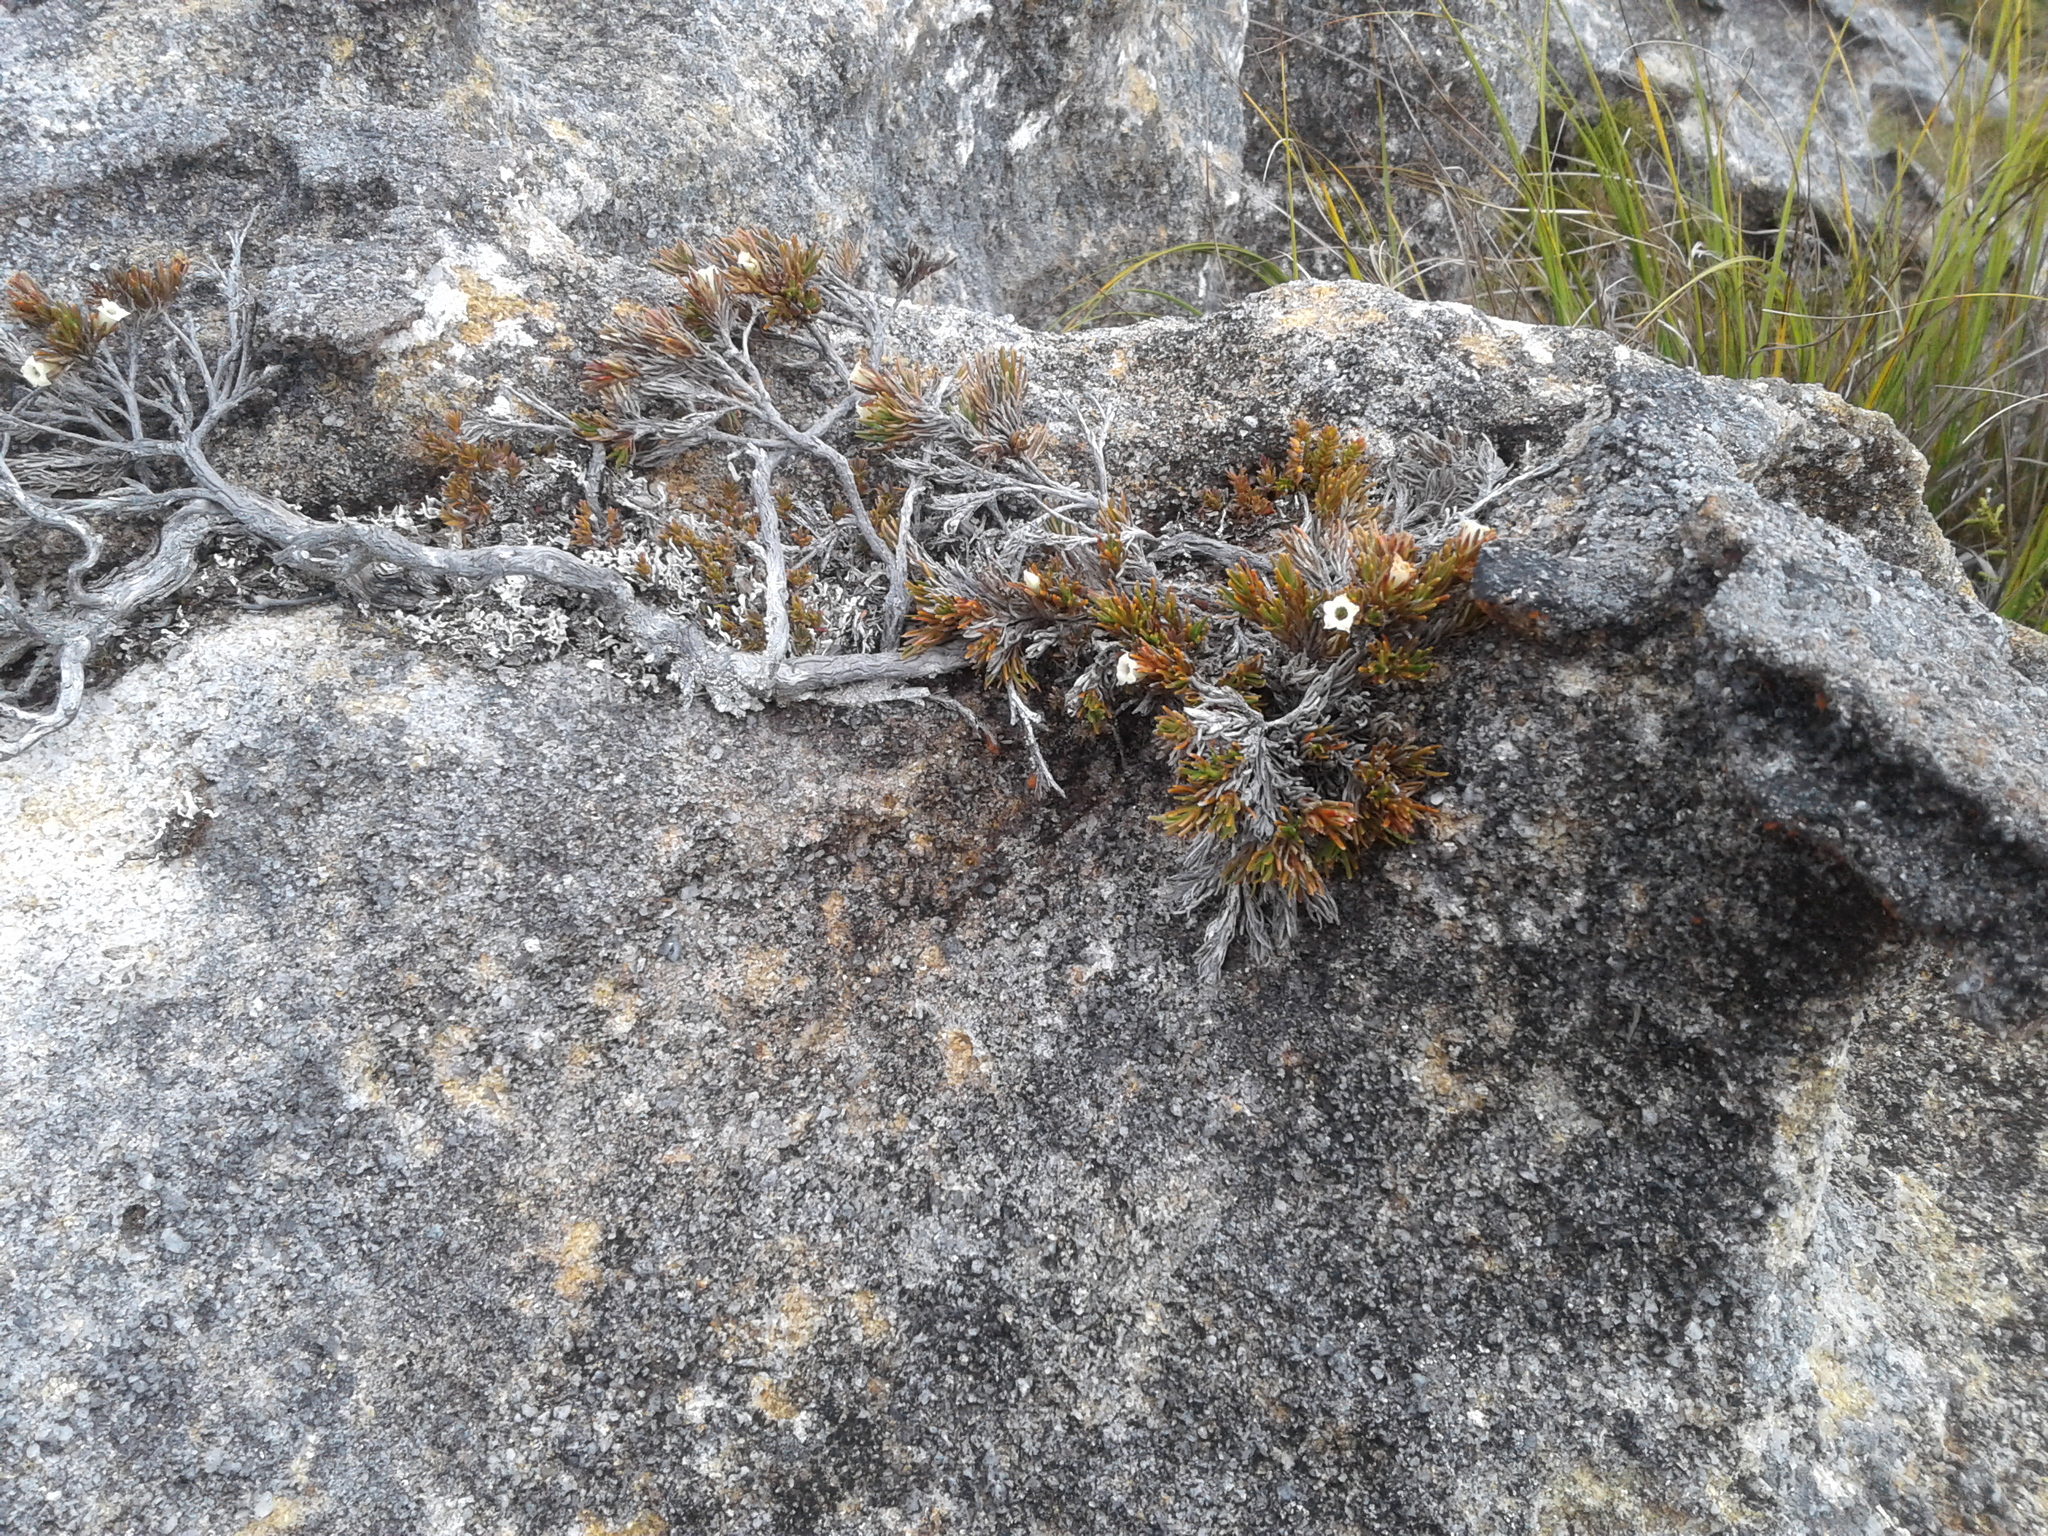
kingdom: Plantae
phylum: Tracheophyta
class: Magnoliopsida
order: Ericales
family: Ericaceae
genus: Dracophyllum
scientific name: Dracophyllum densum
